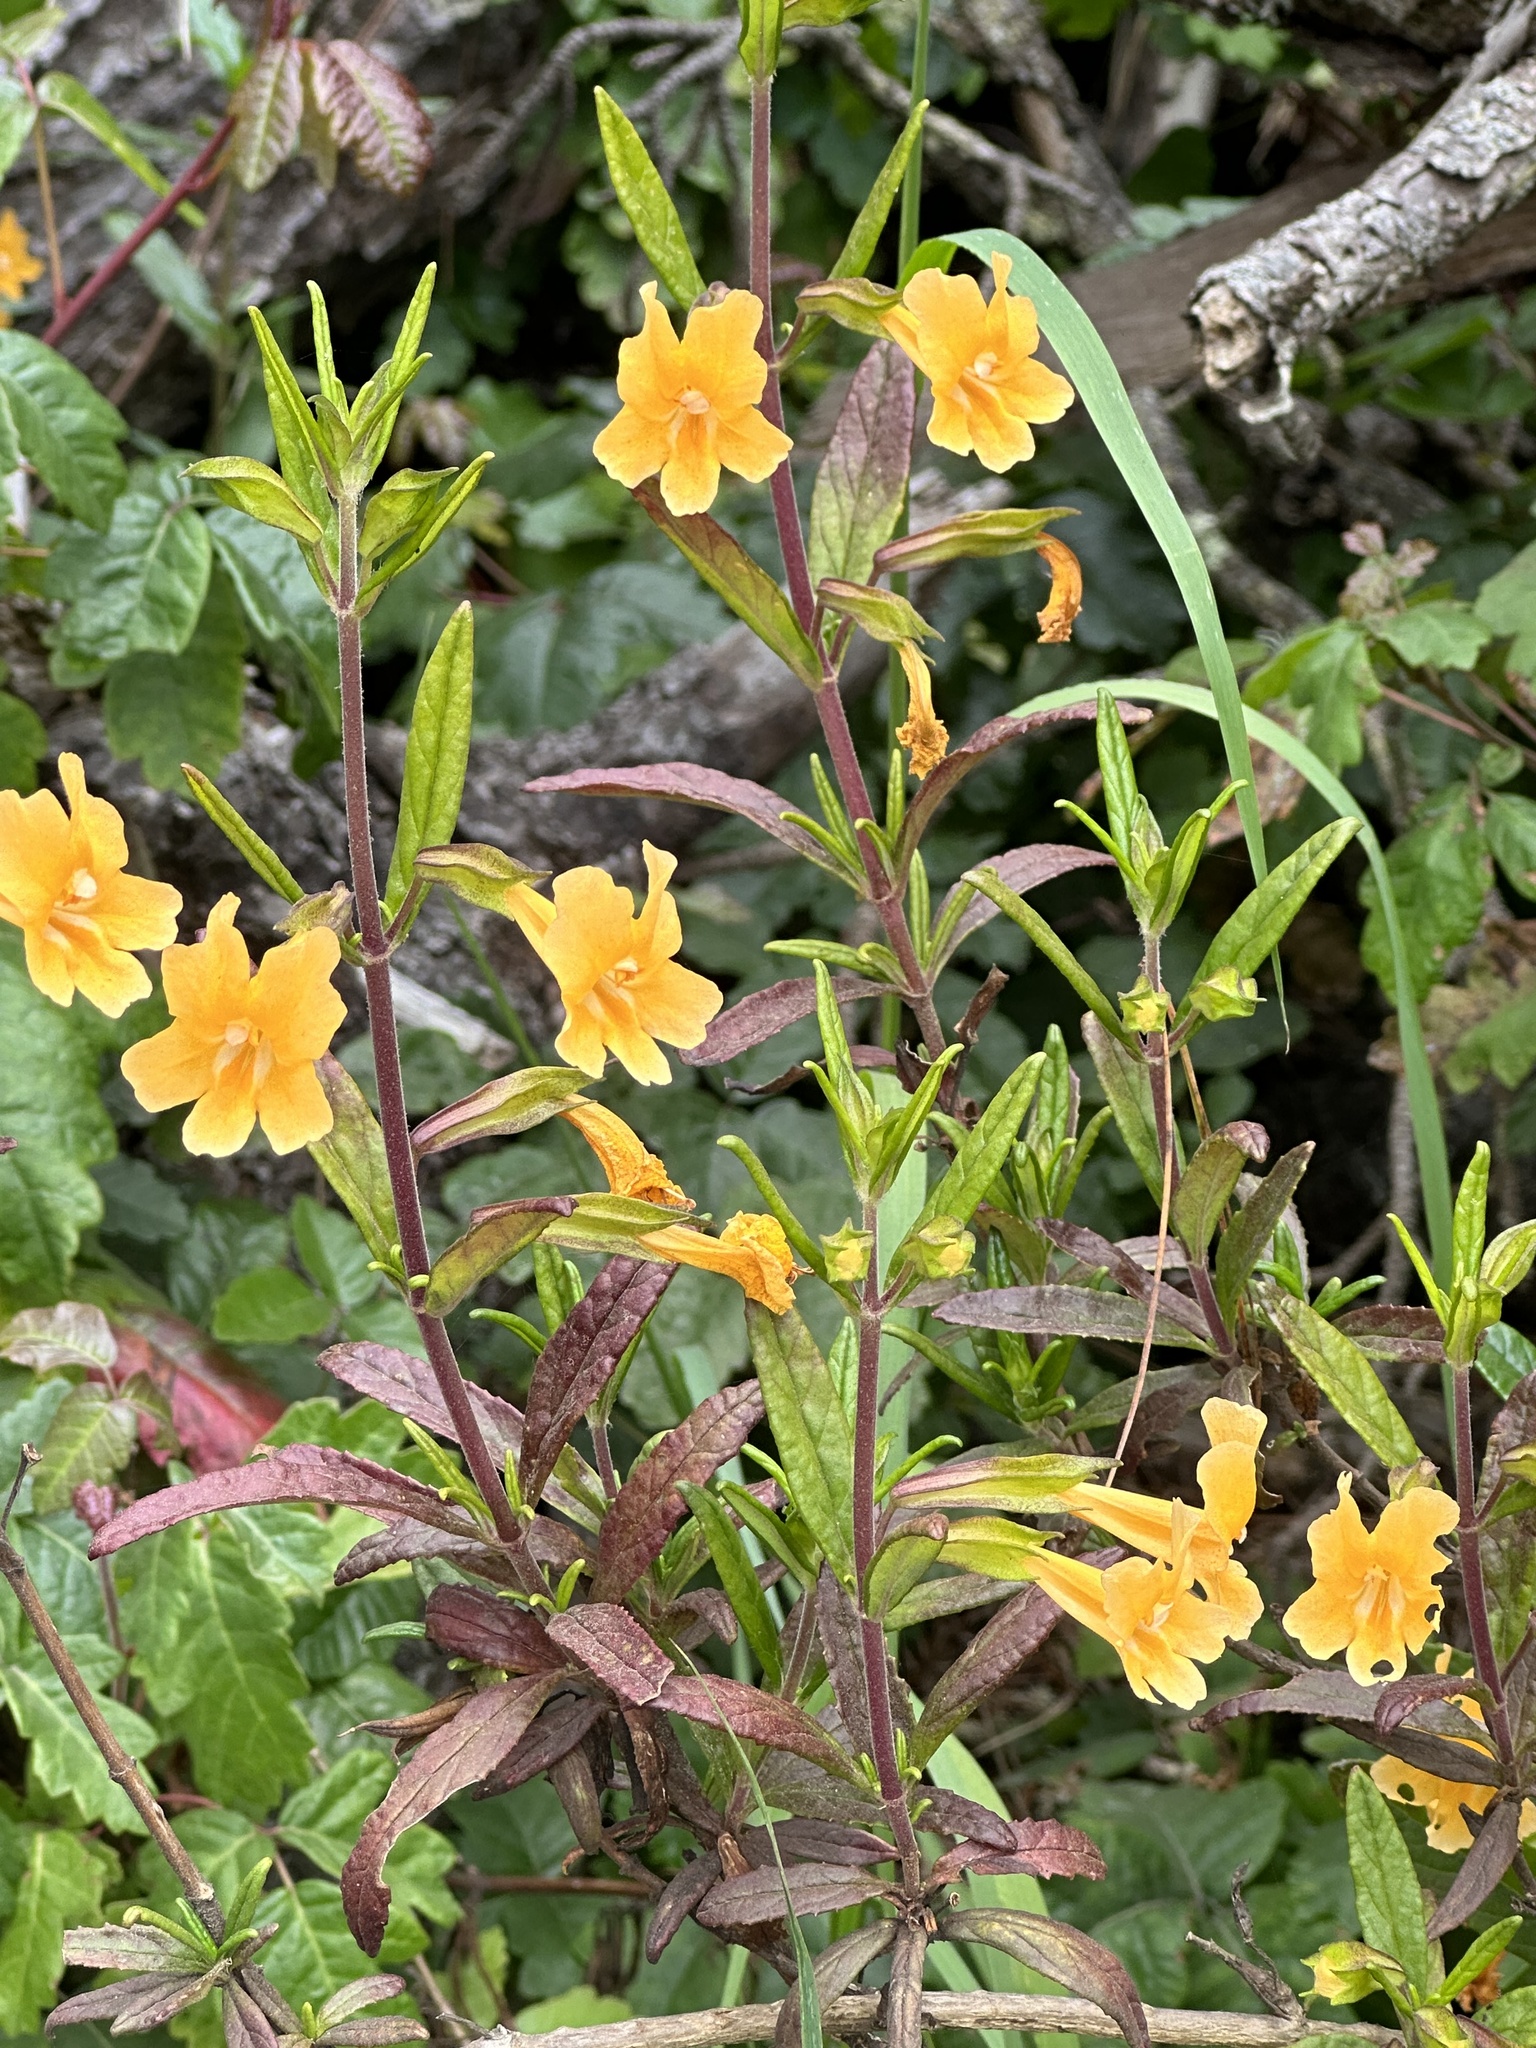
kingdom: Plantae
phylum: Tracheophyta
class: Magnoliopsida
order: Lamiales
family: Phrymaceae
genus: Diplacus
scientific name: Diplacus aurantiacus
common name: Bush monkey-flower
